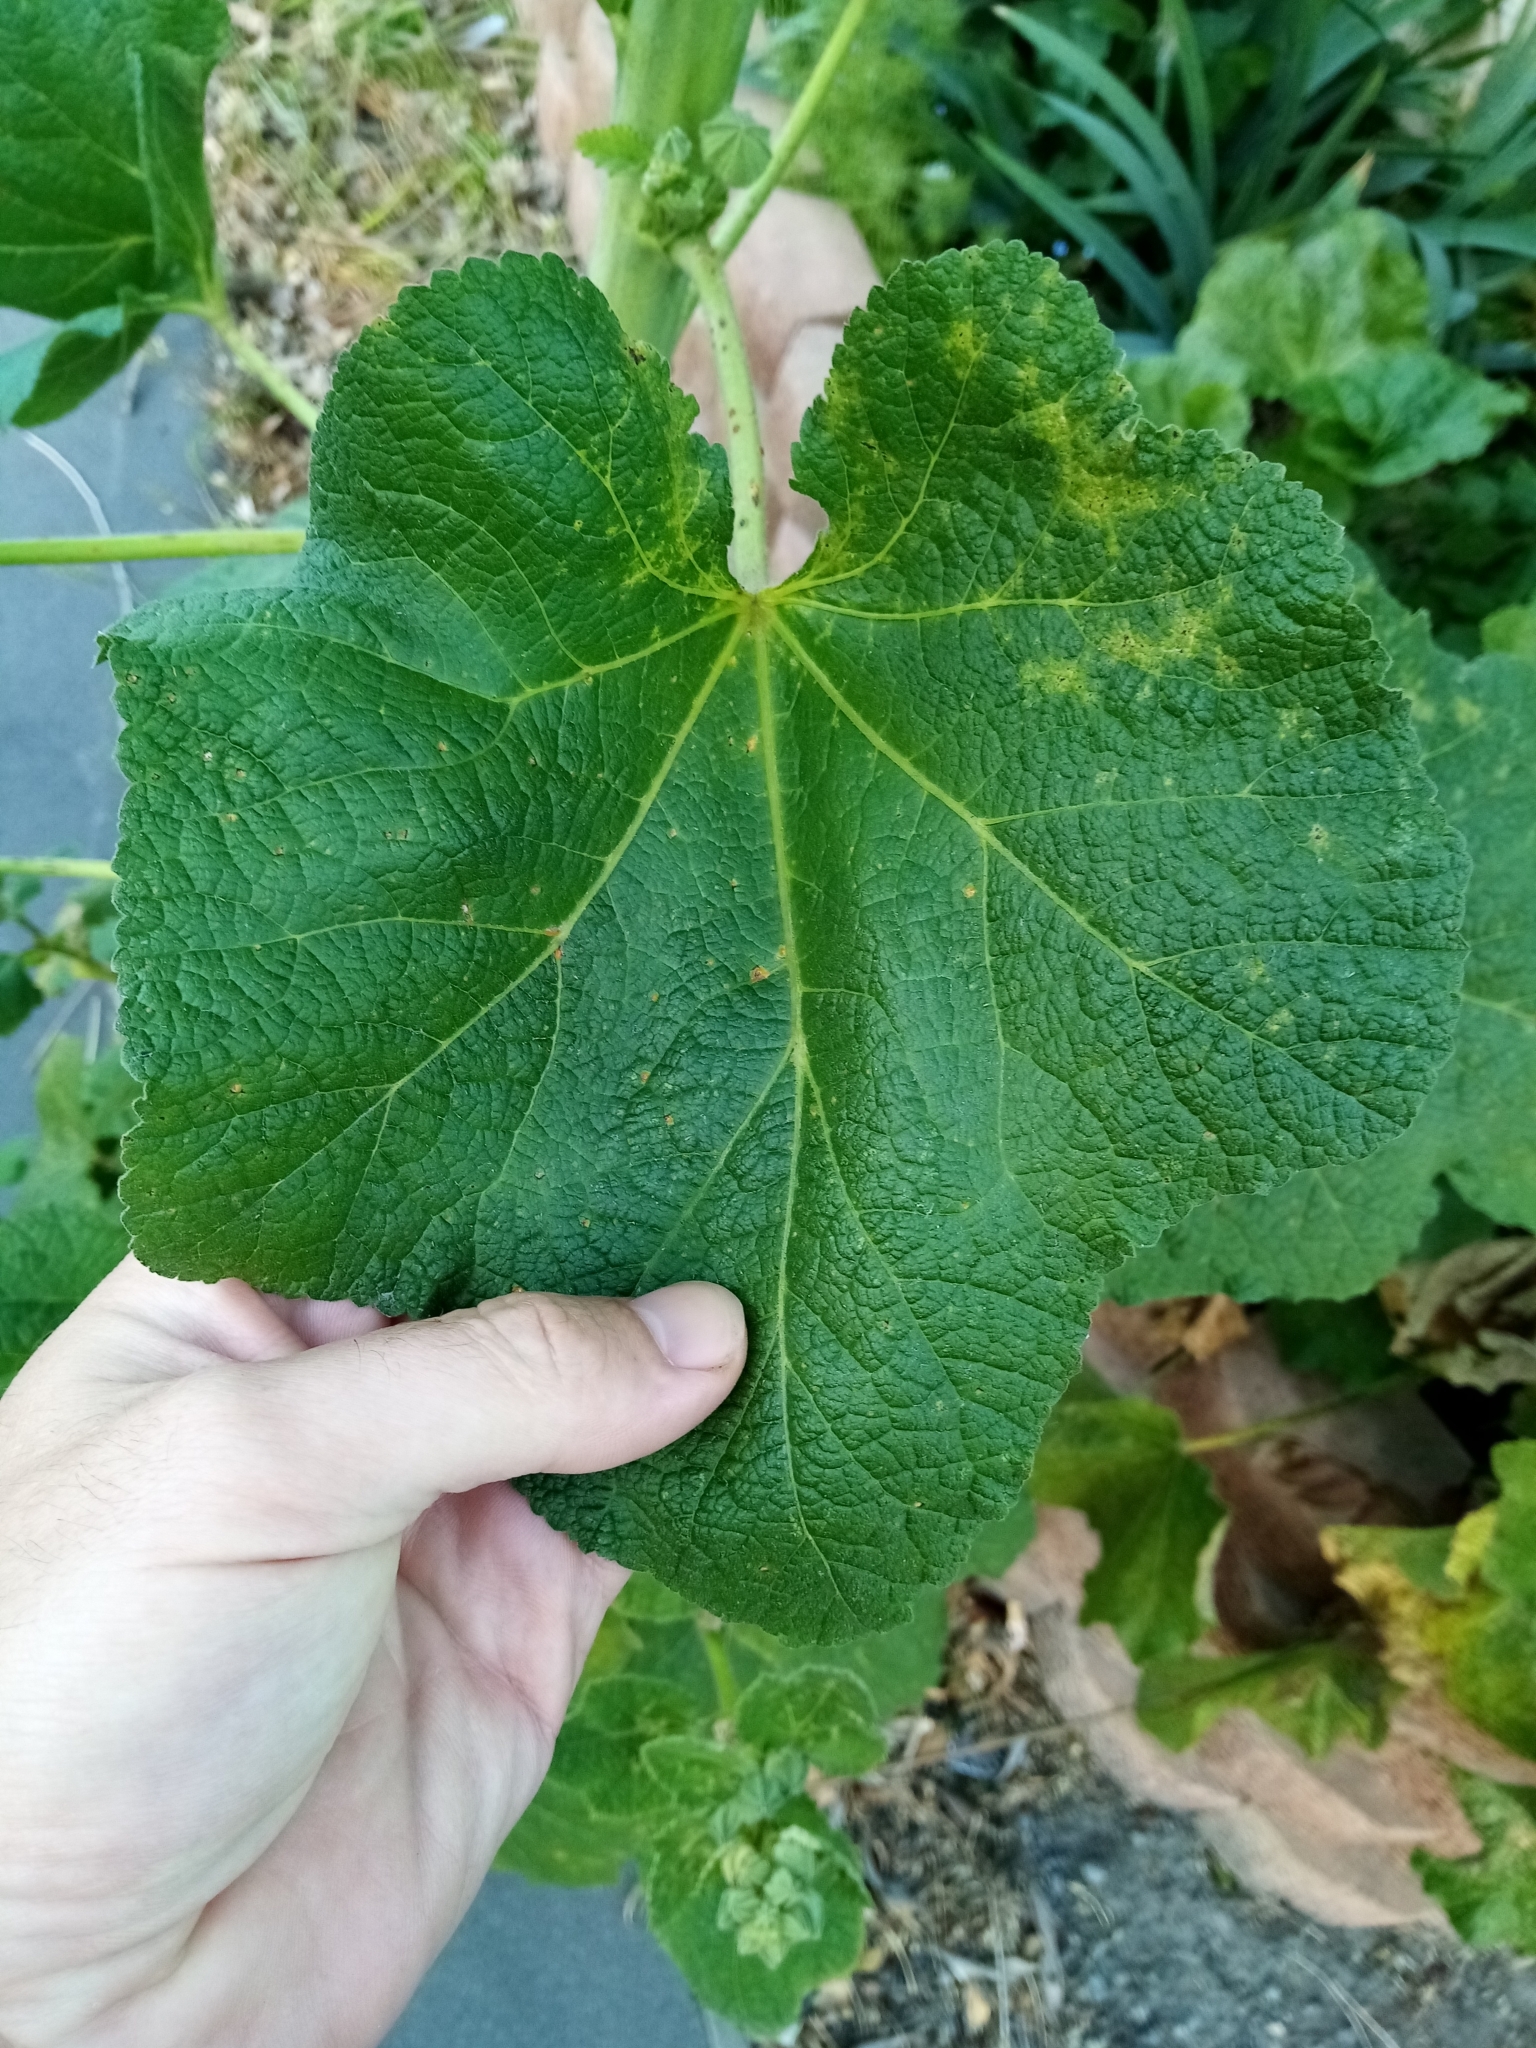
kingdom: Plantae
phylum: Tracheophyta
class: Magnoliopsida
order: Malvales
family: Malvaceae
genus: Alcea
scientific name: Alcea rosea
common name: Hollyhock
